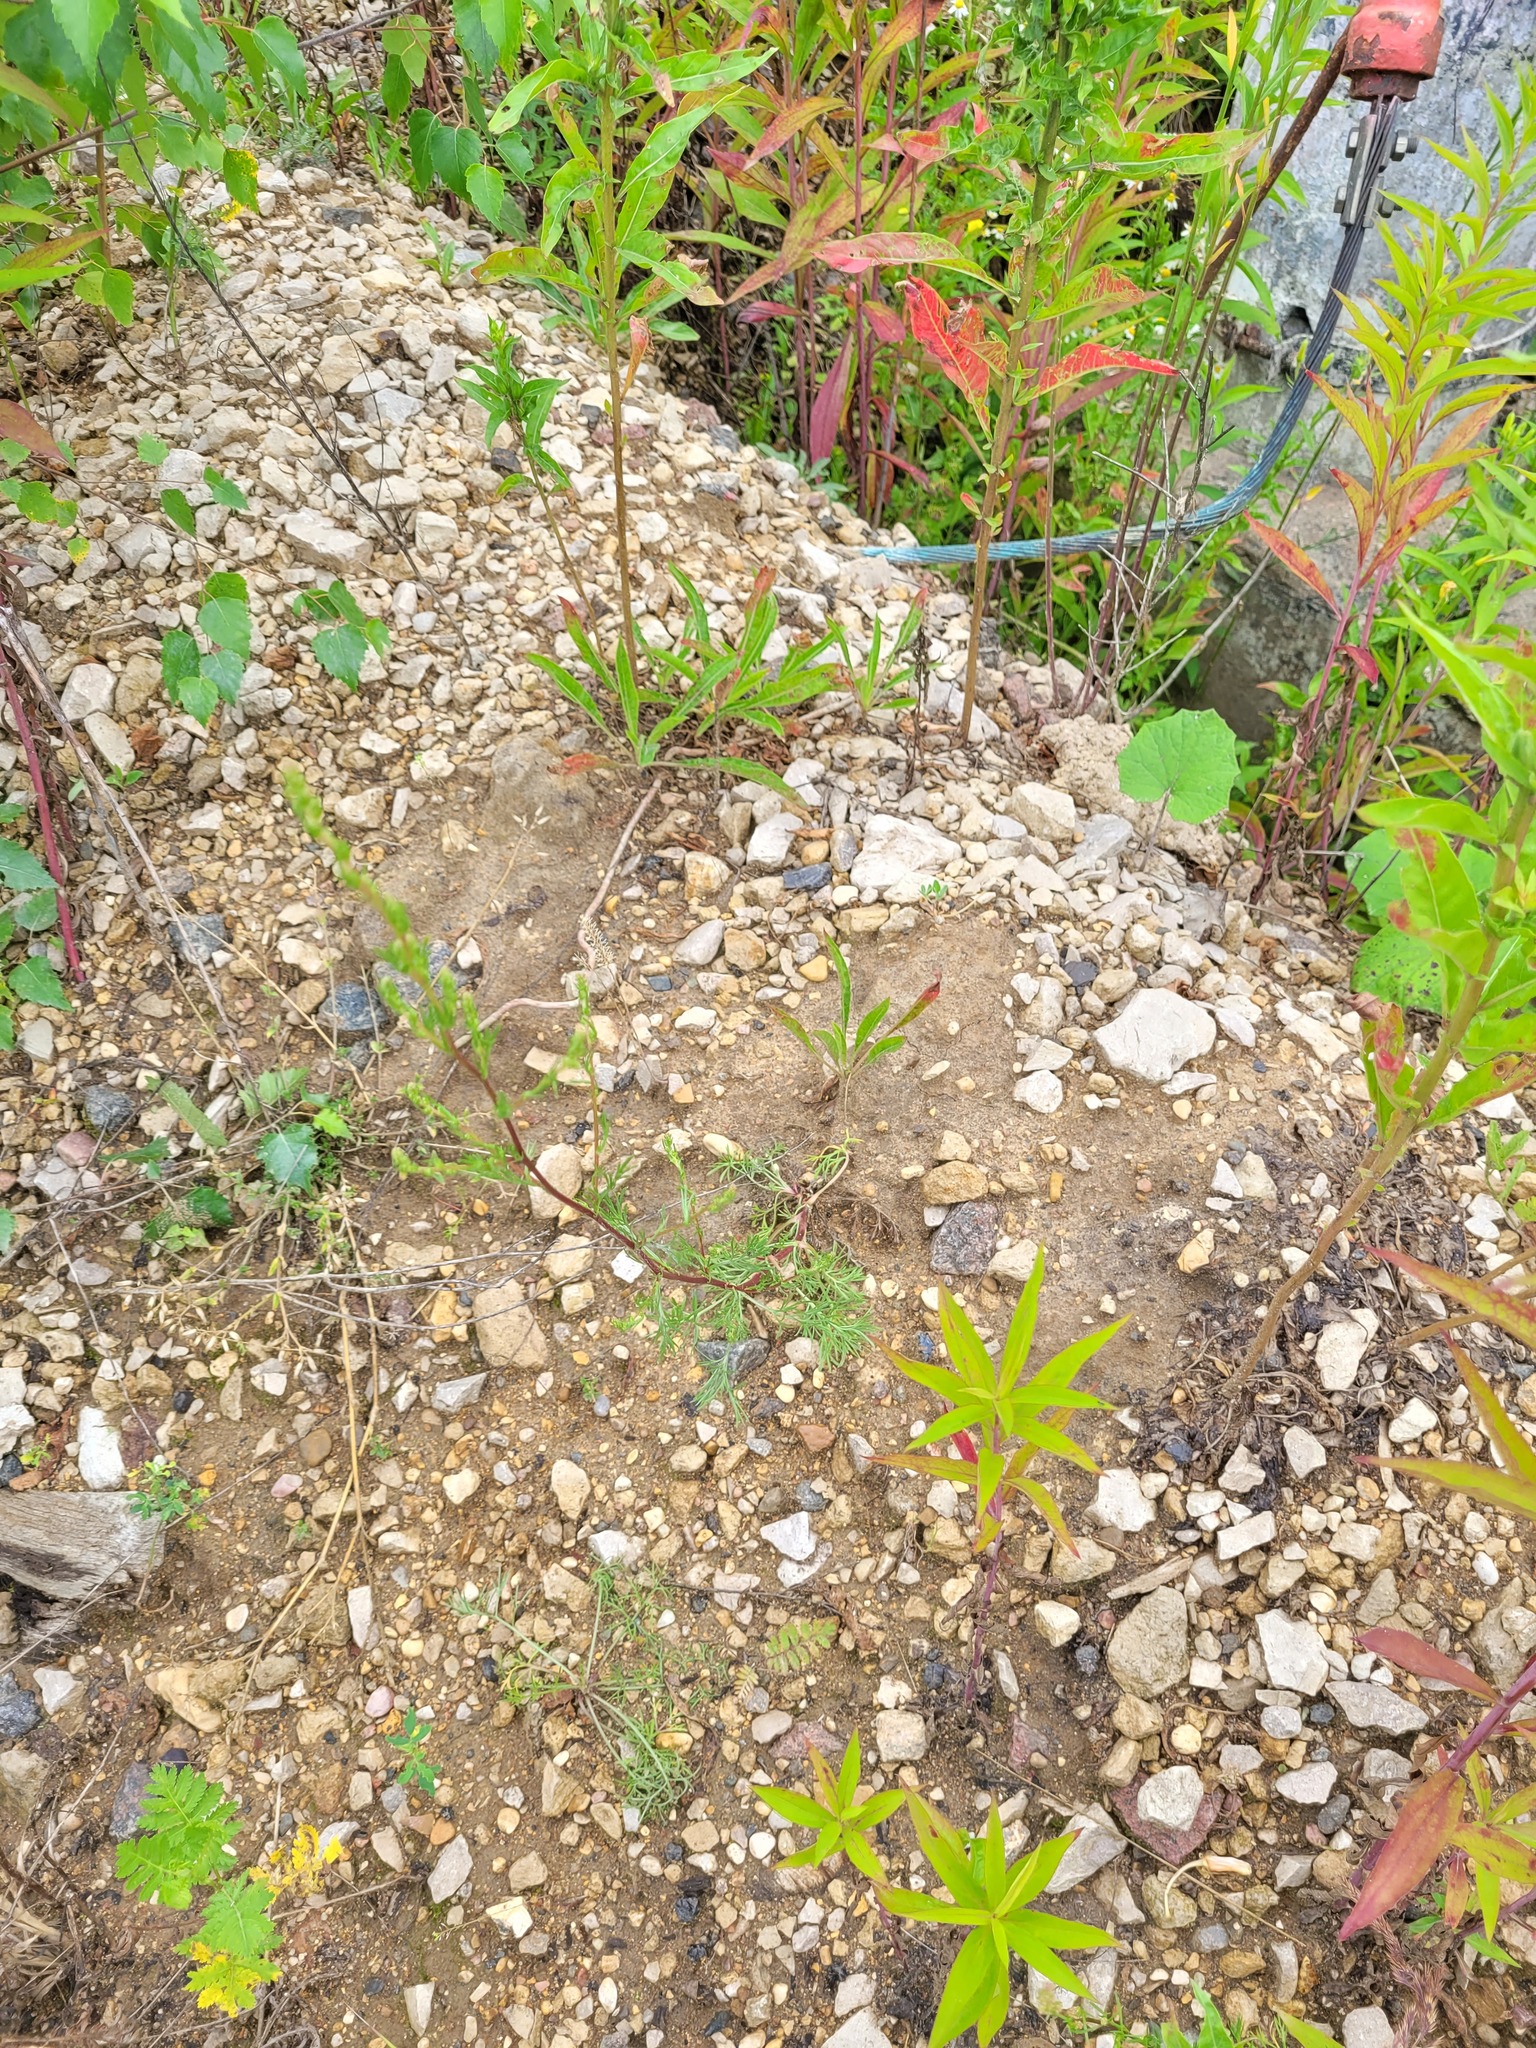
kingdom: Plantae
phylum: Tracheophyta
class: Magnoliopsida
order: Asterales
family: Asteraceae
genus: Artemisia
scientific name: Artemisia campestris
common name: Field wormwood
